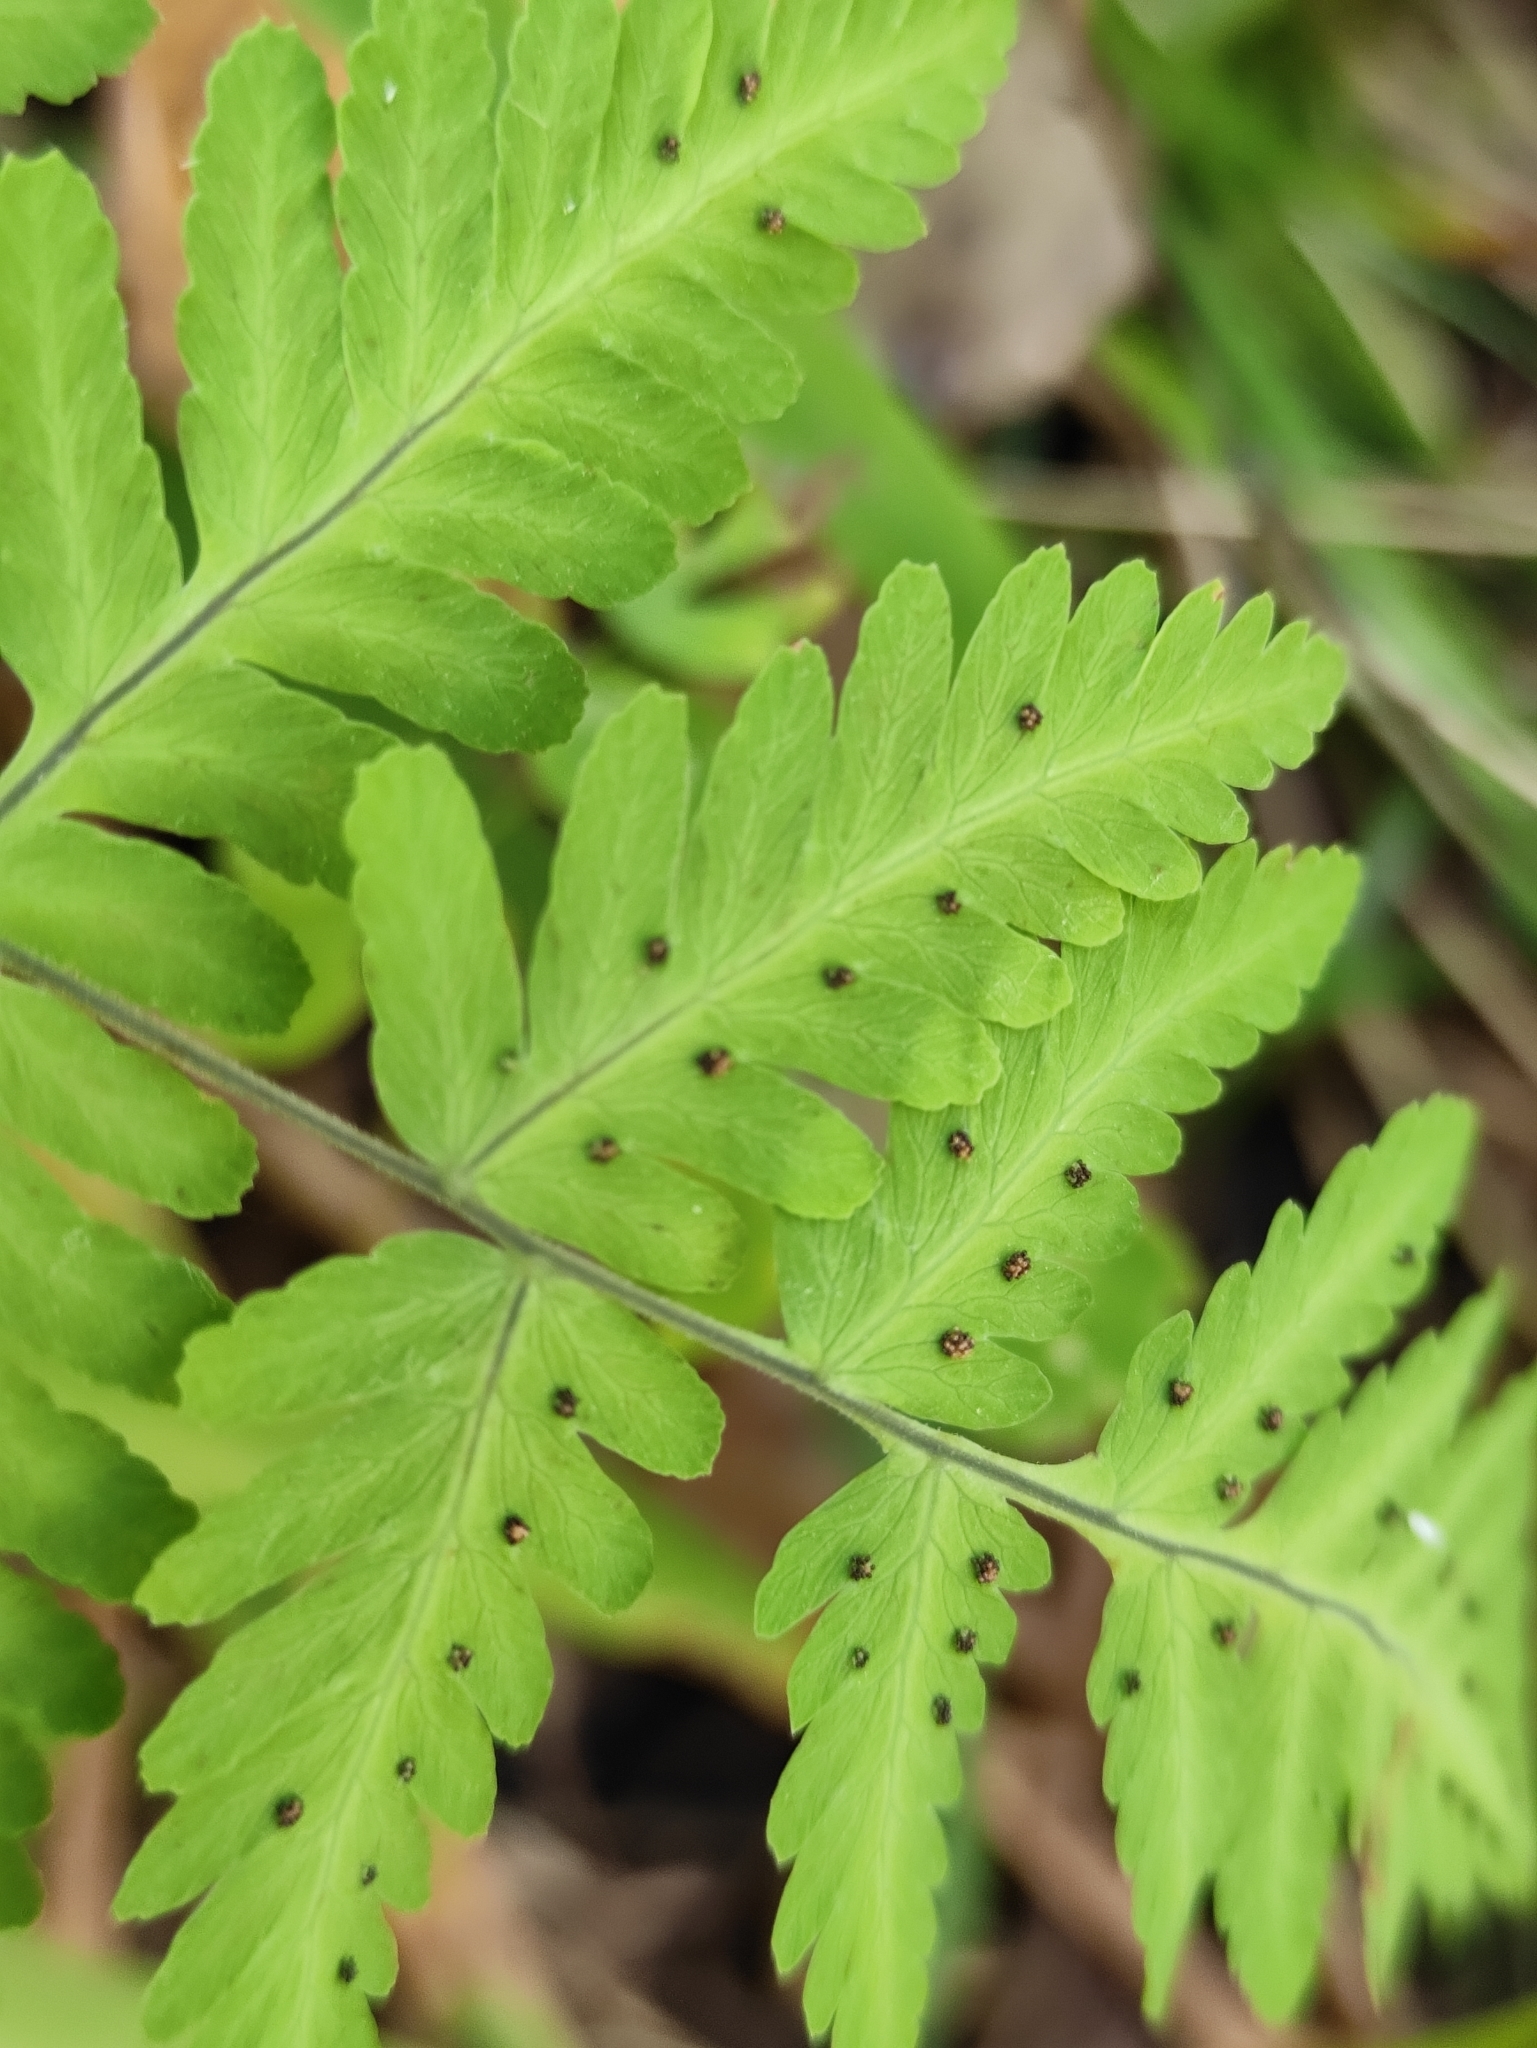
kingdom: Plantae
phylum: Tracheophyta
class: Polypodiopsida
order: Polypodiales
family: Cystopteridaceae
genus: Gymnocarpium
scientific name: Gymnocarpium dryopteris
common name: Oak fern
